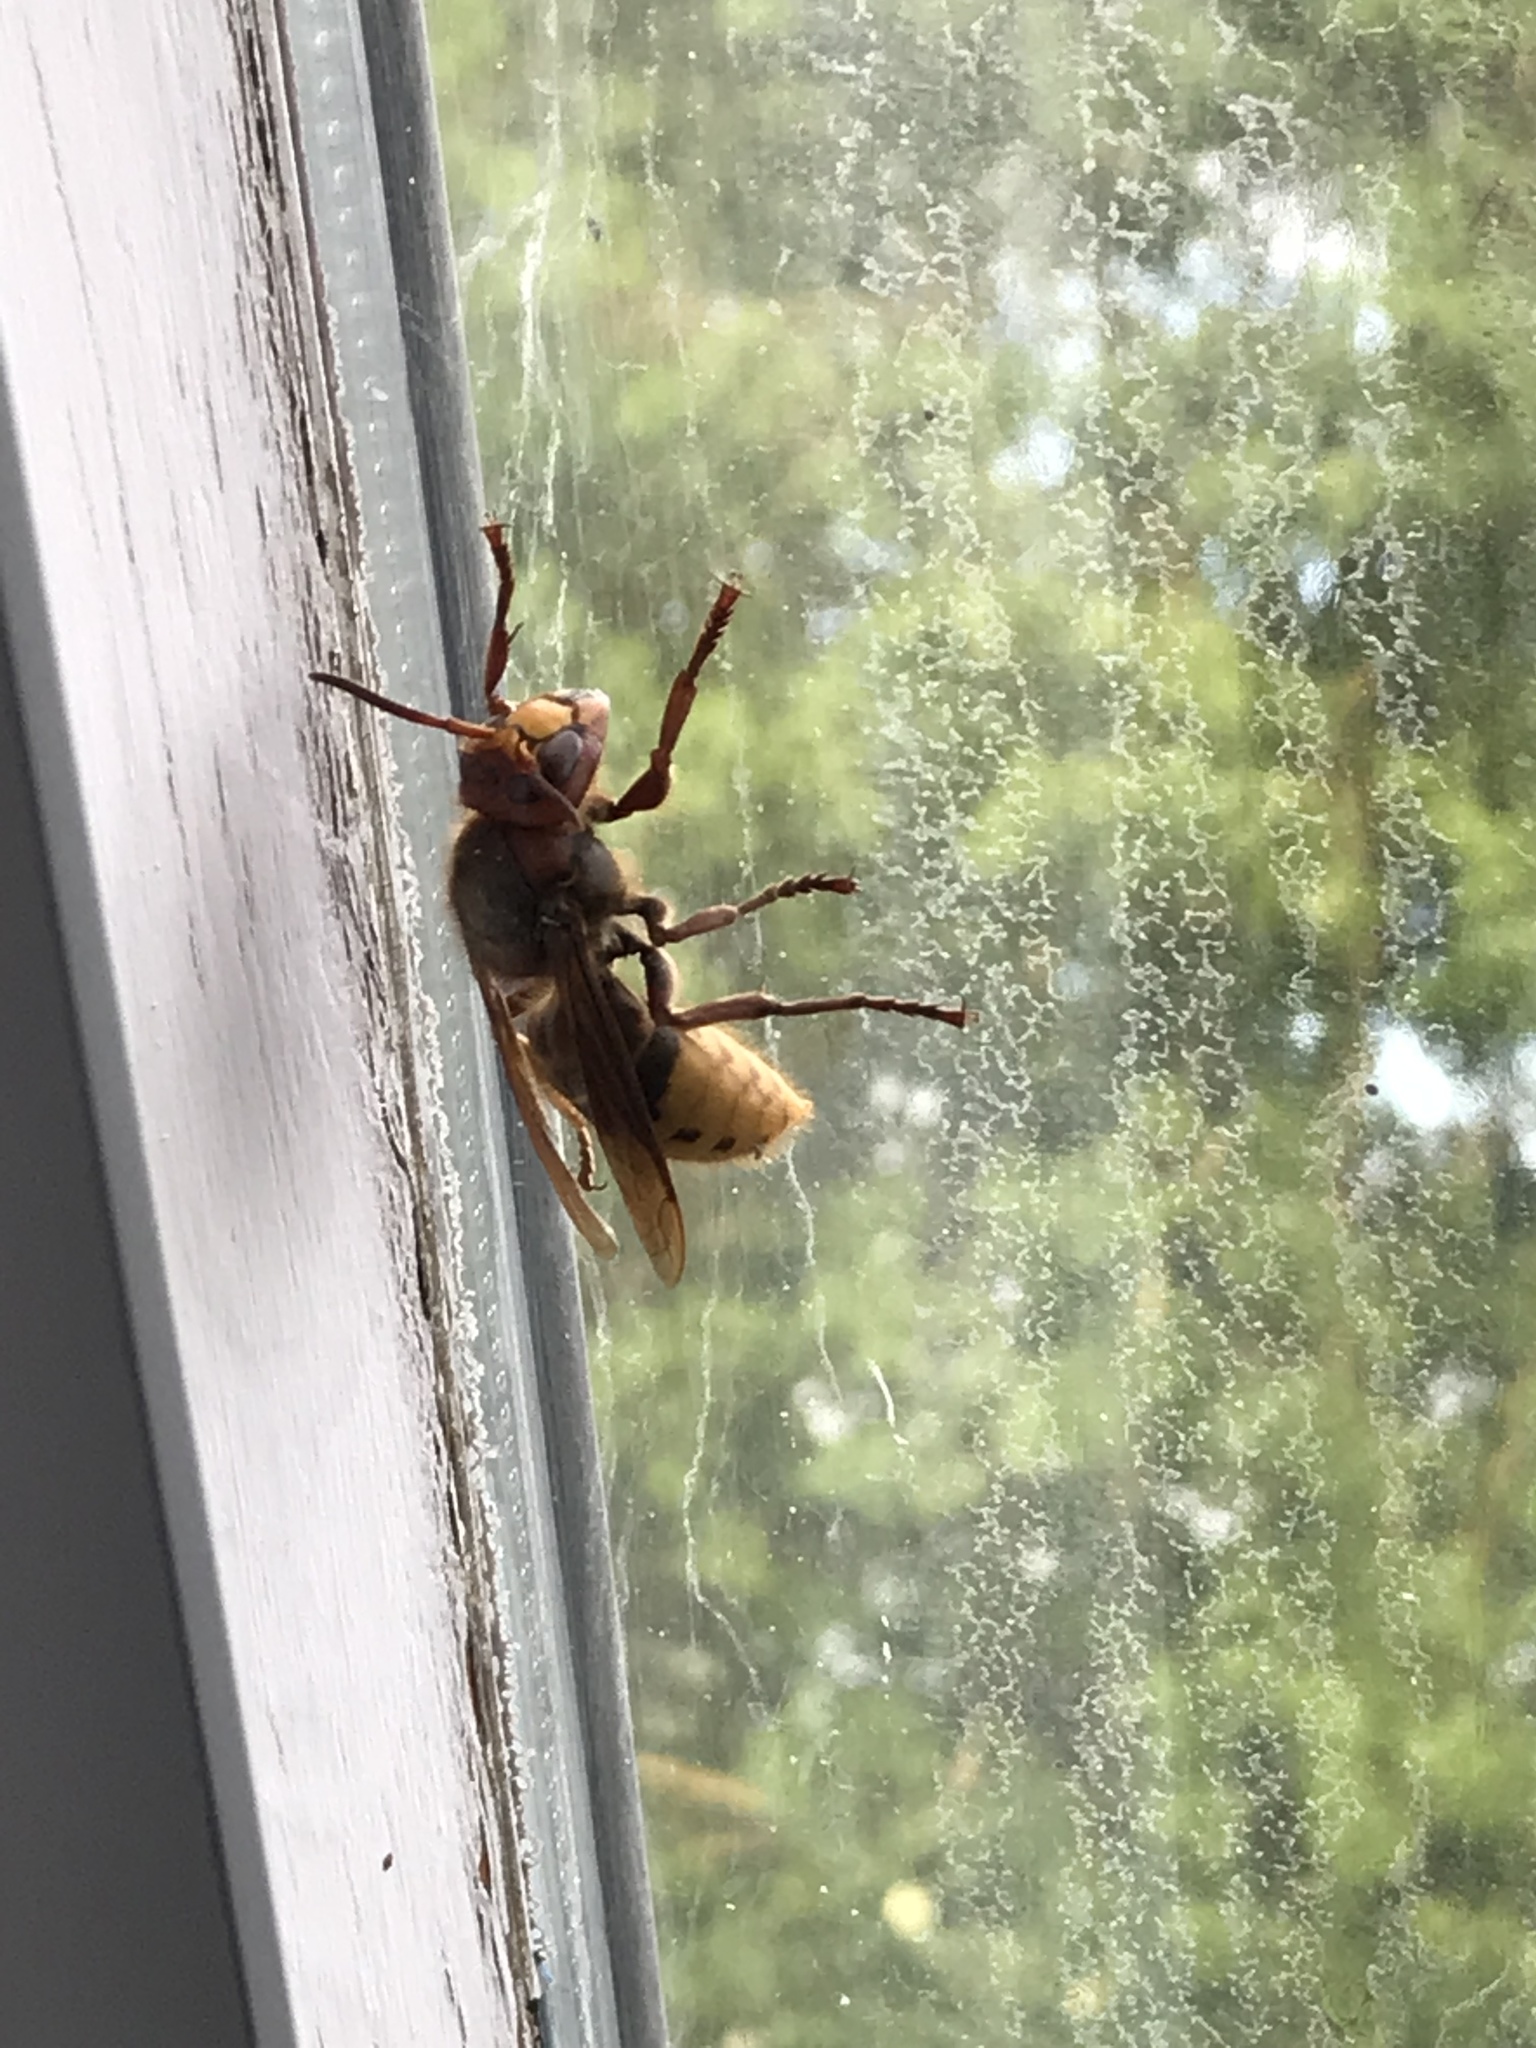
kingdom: Animalia
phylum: Arthropoda
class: Insecta
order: Hymenoptera
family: Vespidae
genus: Vespa
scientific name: Vespa crabro
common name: Hornet
